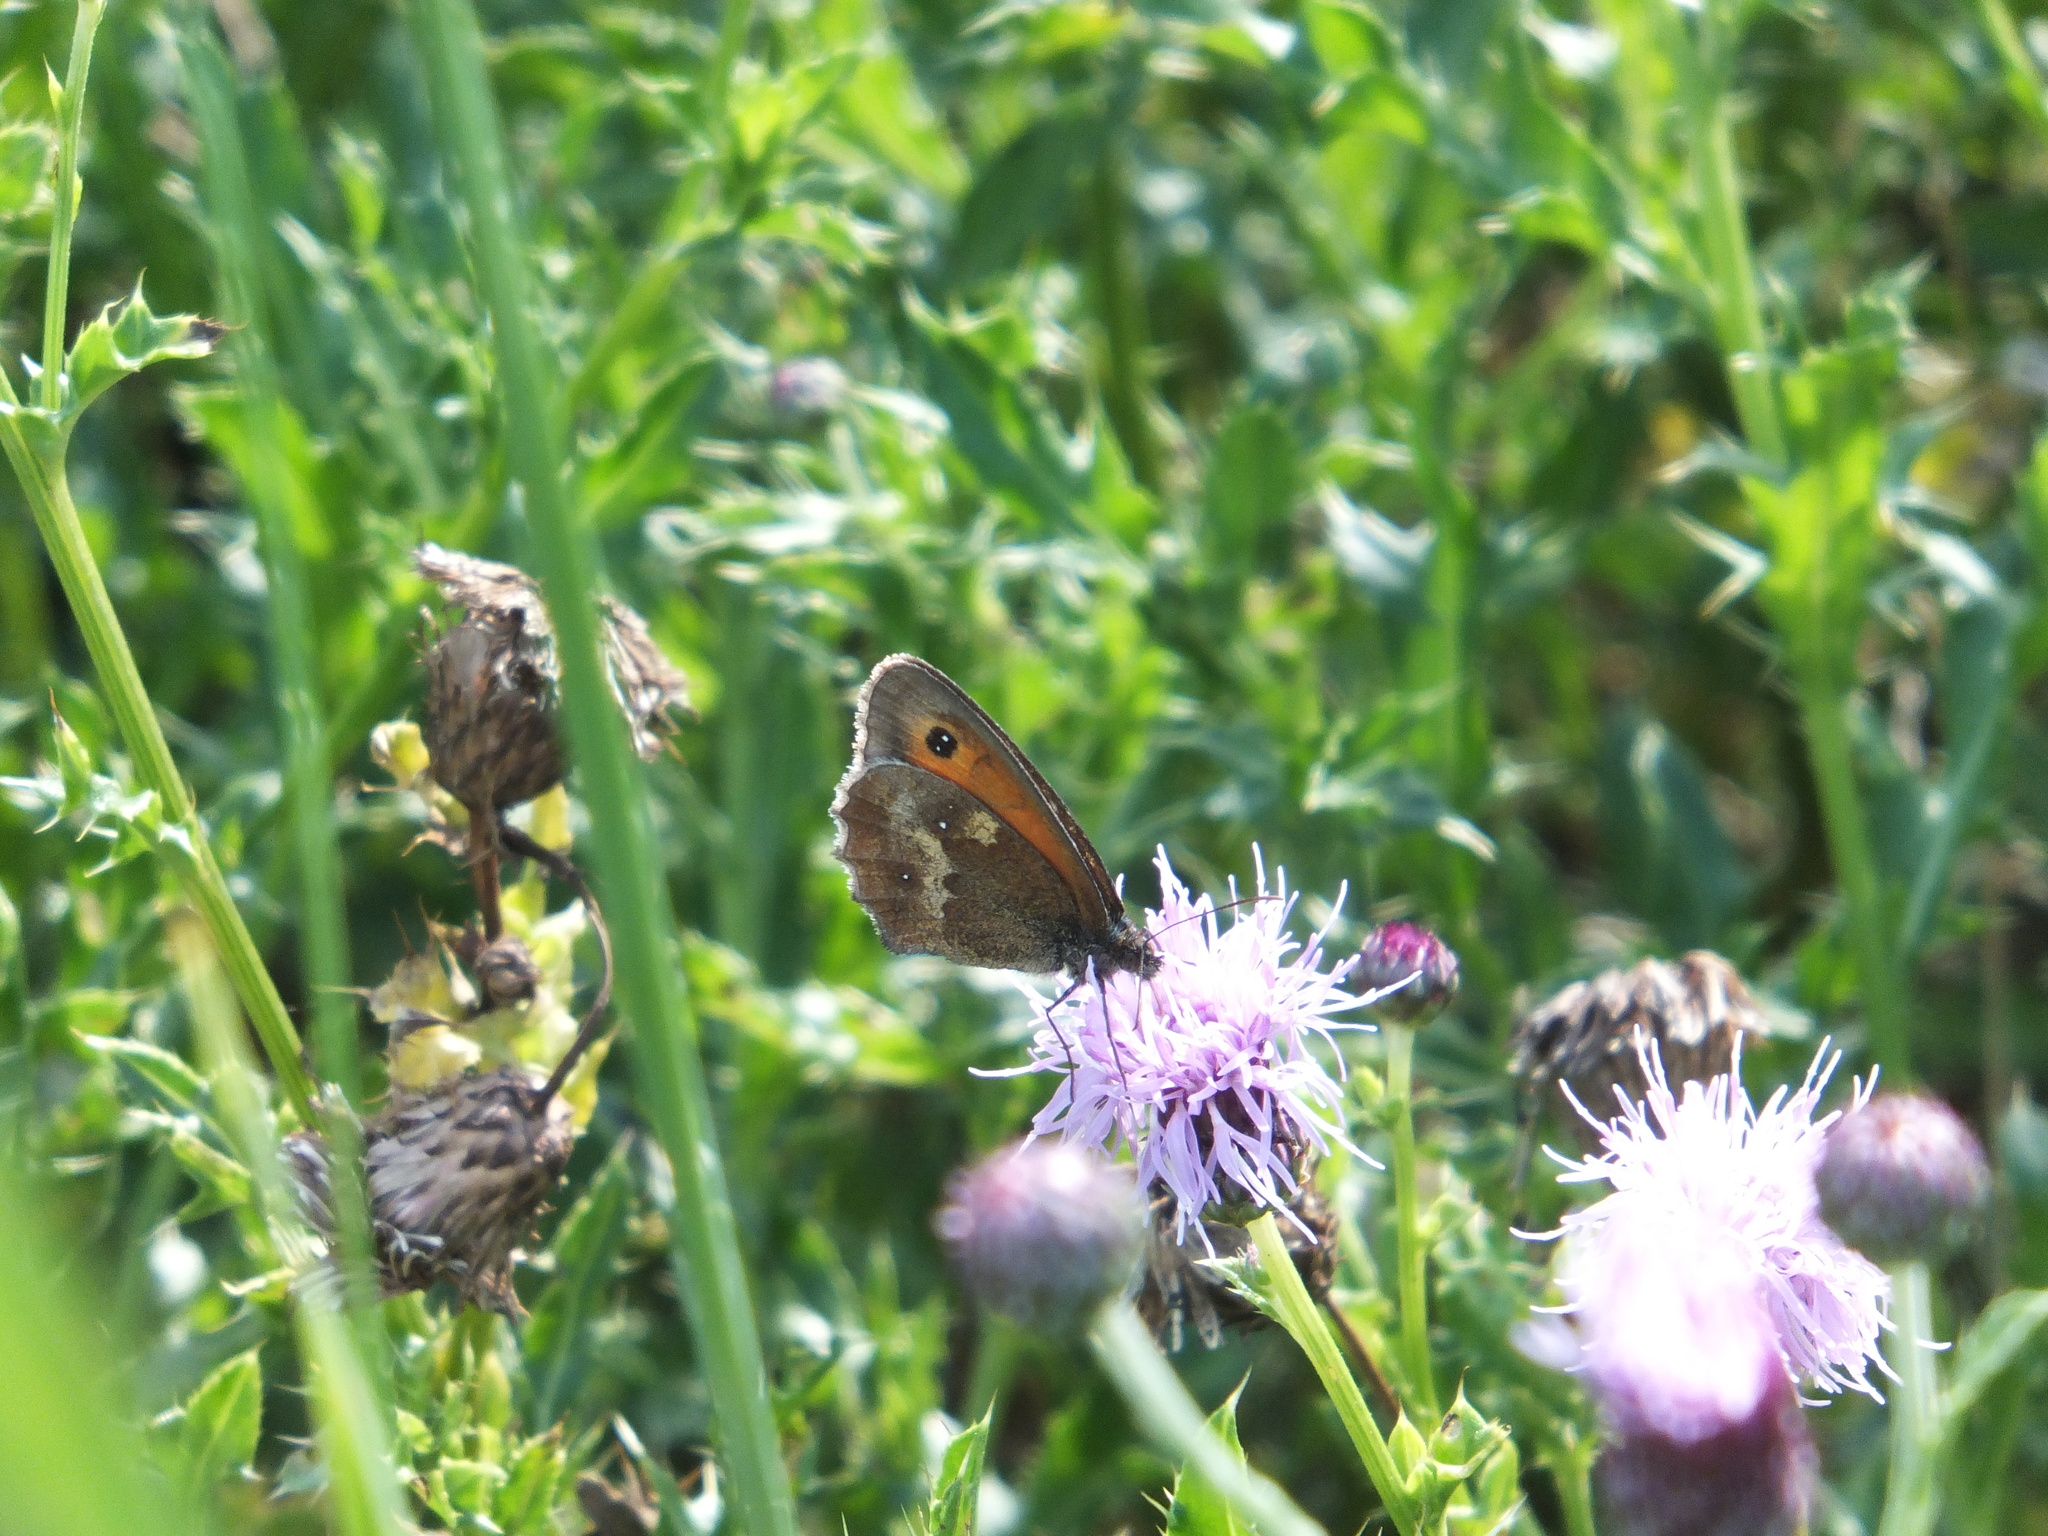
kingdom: Animalia
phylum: Arthropoda
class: Insecta
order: Lepidoptera
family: Nymphalidae
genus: Pyronia
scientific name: Pyronia tithonus
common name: Gatekeeper
